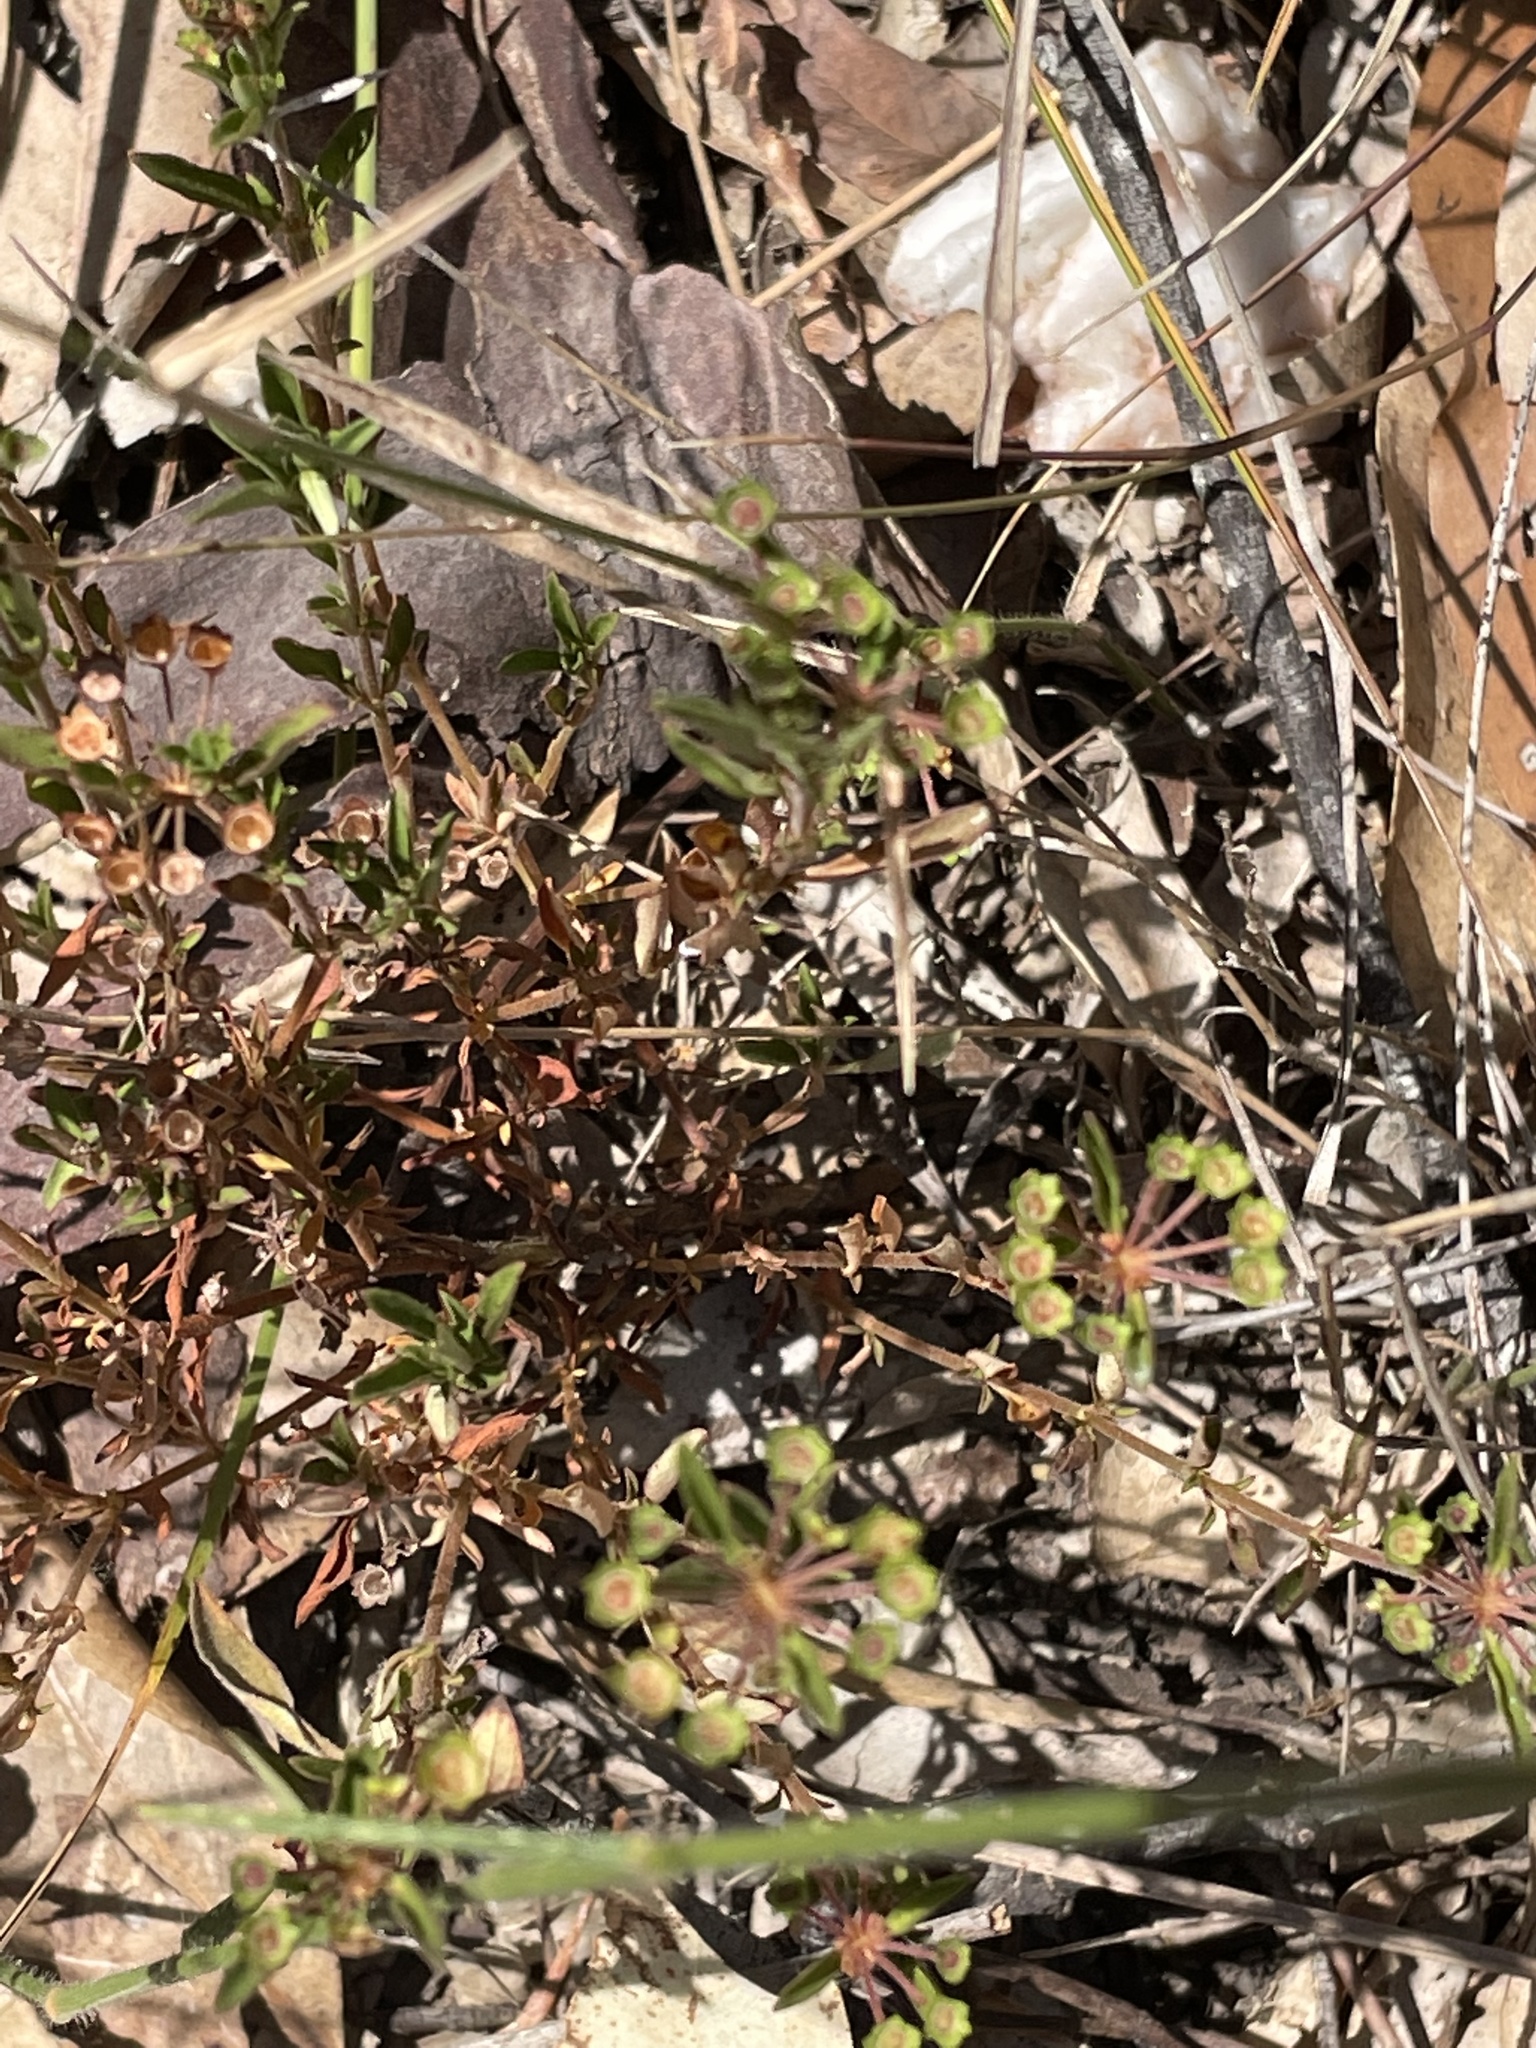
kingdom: Plantae
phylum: Tracheophyta
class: Magnoliopsida
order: Gentianales
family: Rubiaceae
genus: Pomax
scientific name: Pomax umbellata
